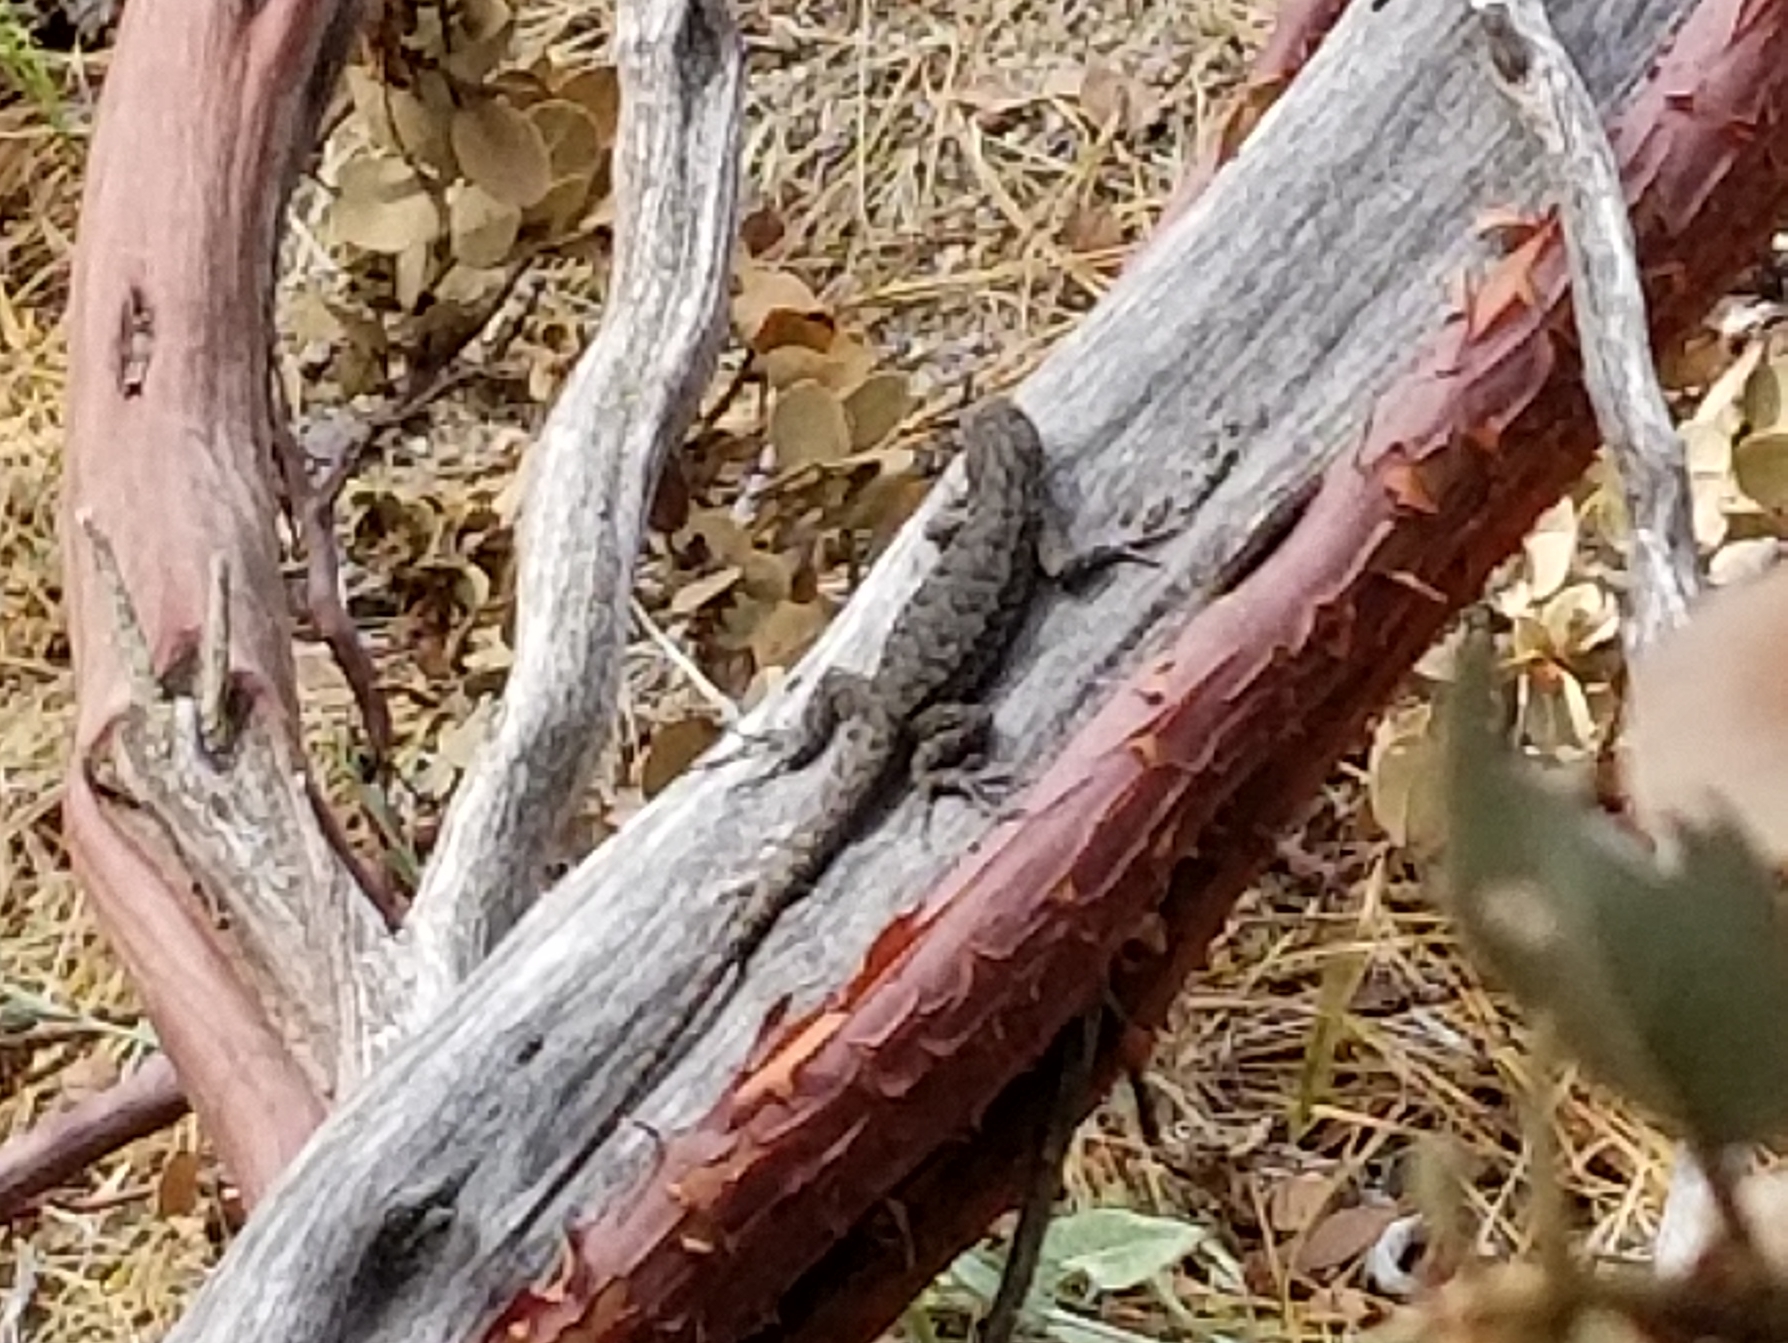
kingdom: Animalia
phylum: Chordata
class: Squamata
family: Phrynosomatidae
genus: Sceloporus
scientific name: Sceloporus occidentalis
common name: Western fence lizard
